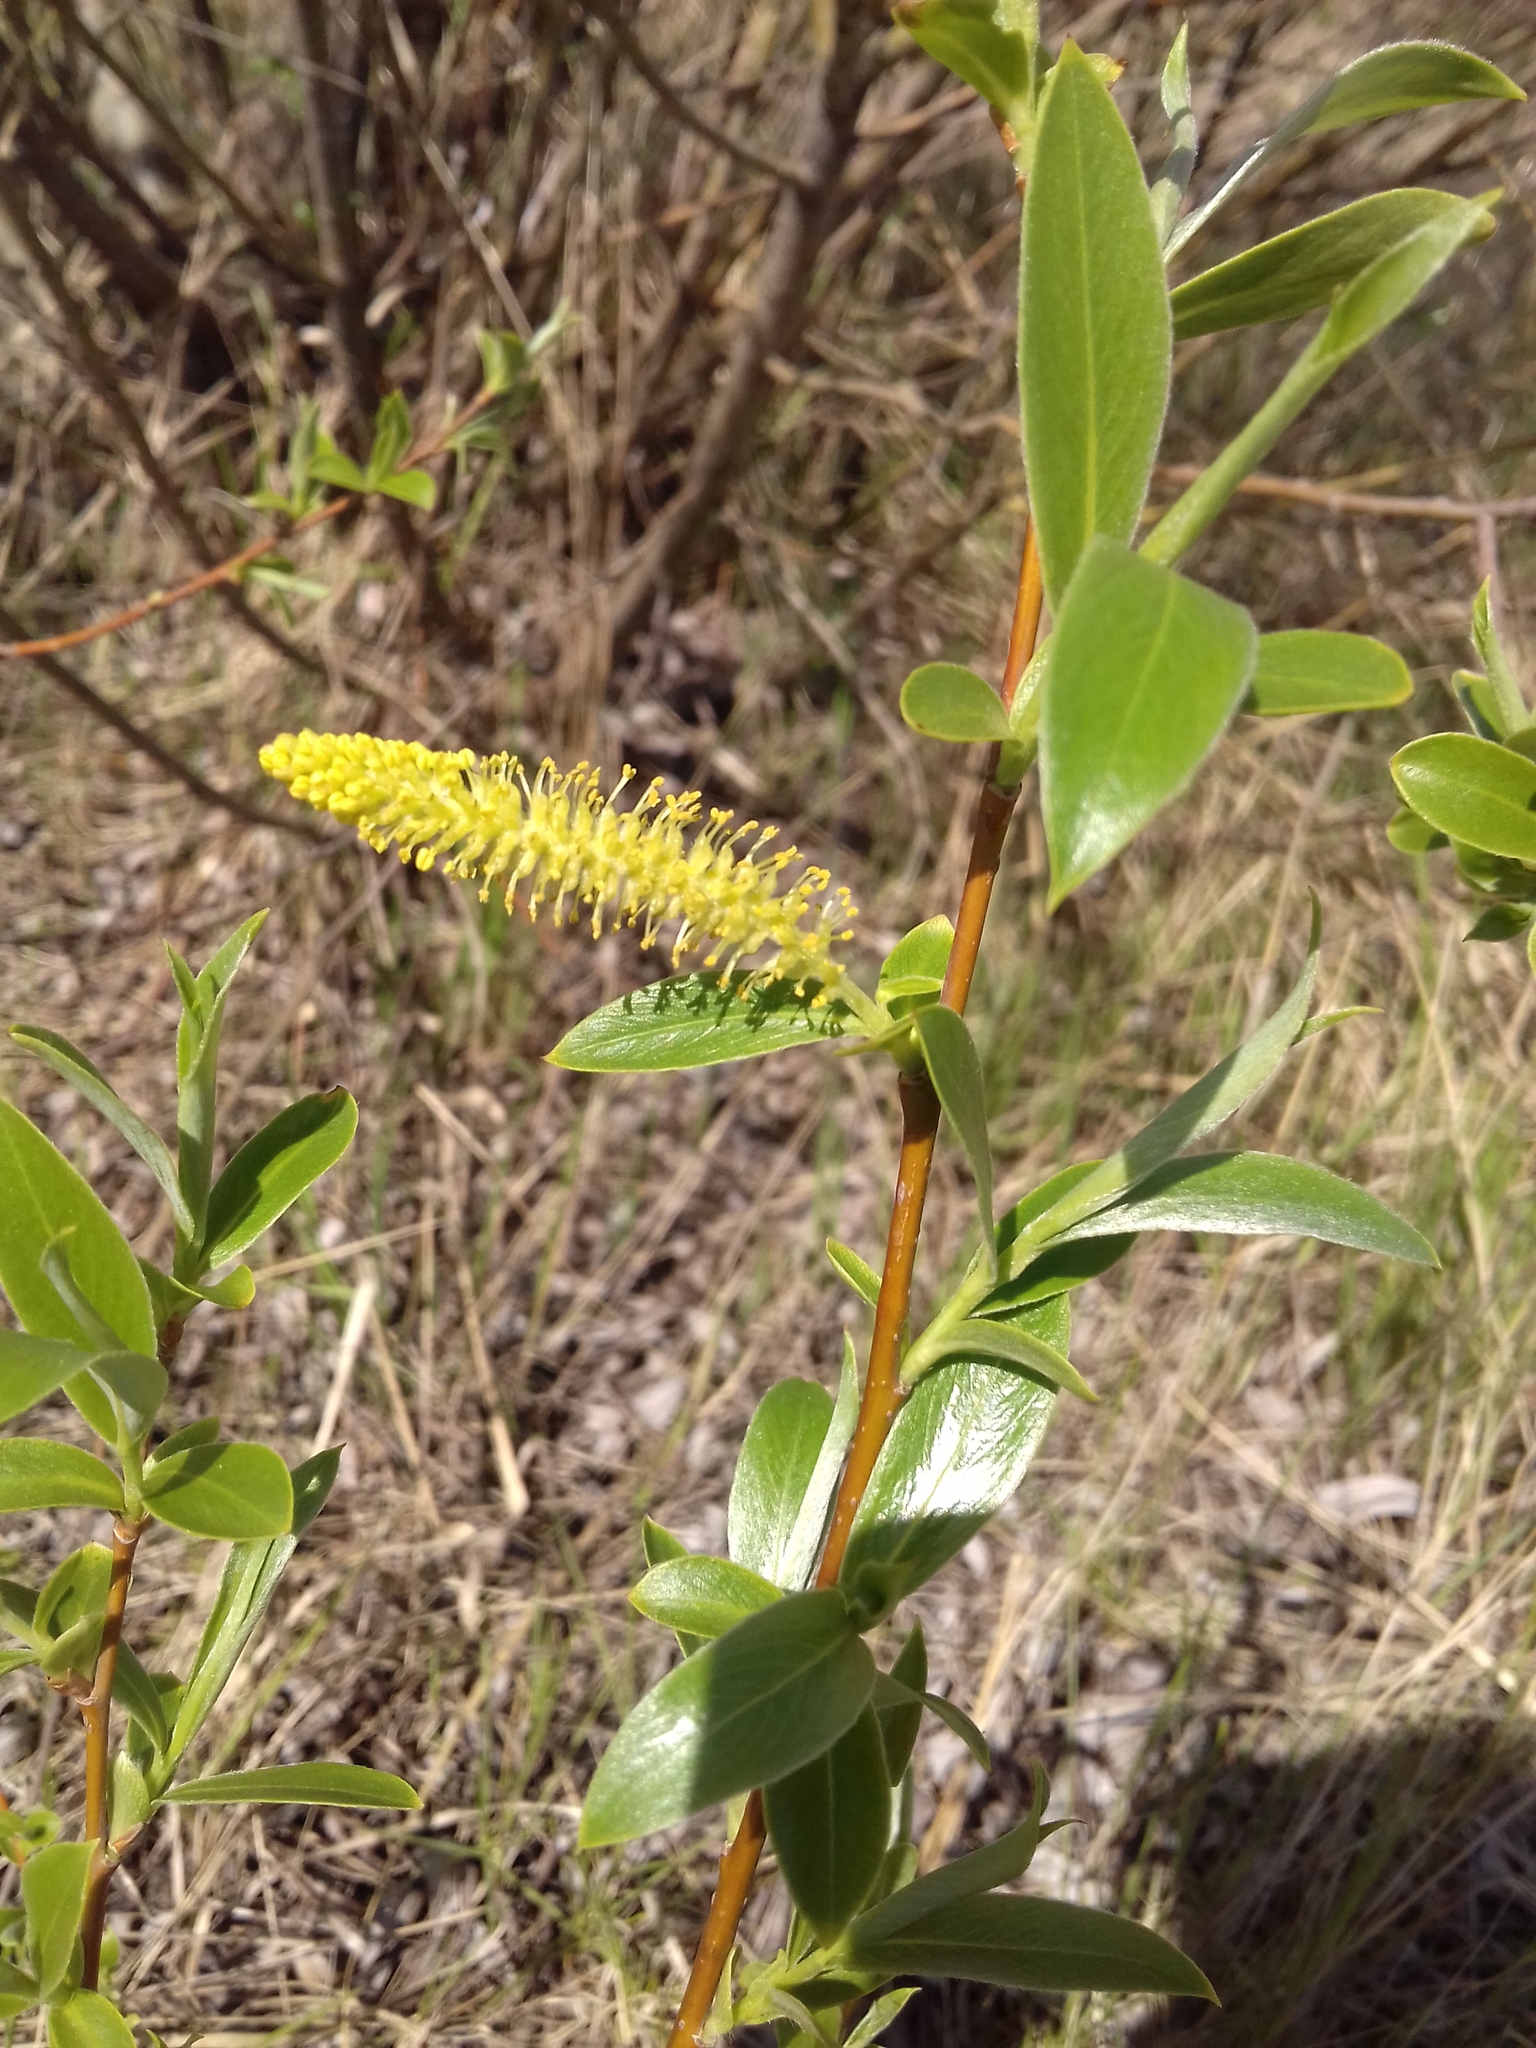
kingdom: Plantae
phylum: Tracheophyta
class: Magnoliopsida
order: Malpighiales
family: Salicaceae
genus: Salix
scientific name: Salix triandra
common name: Almond willow
